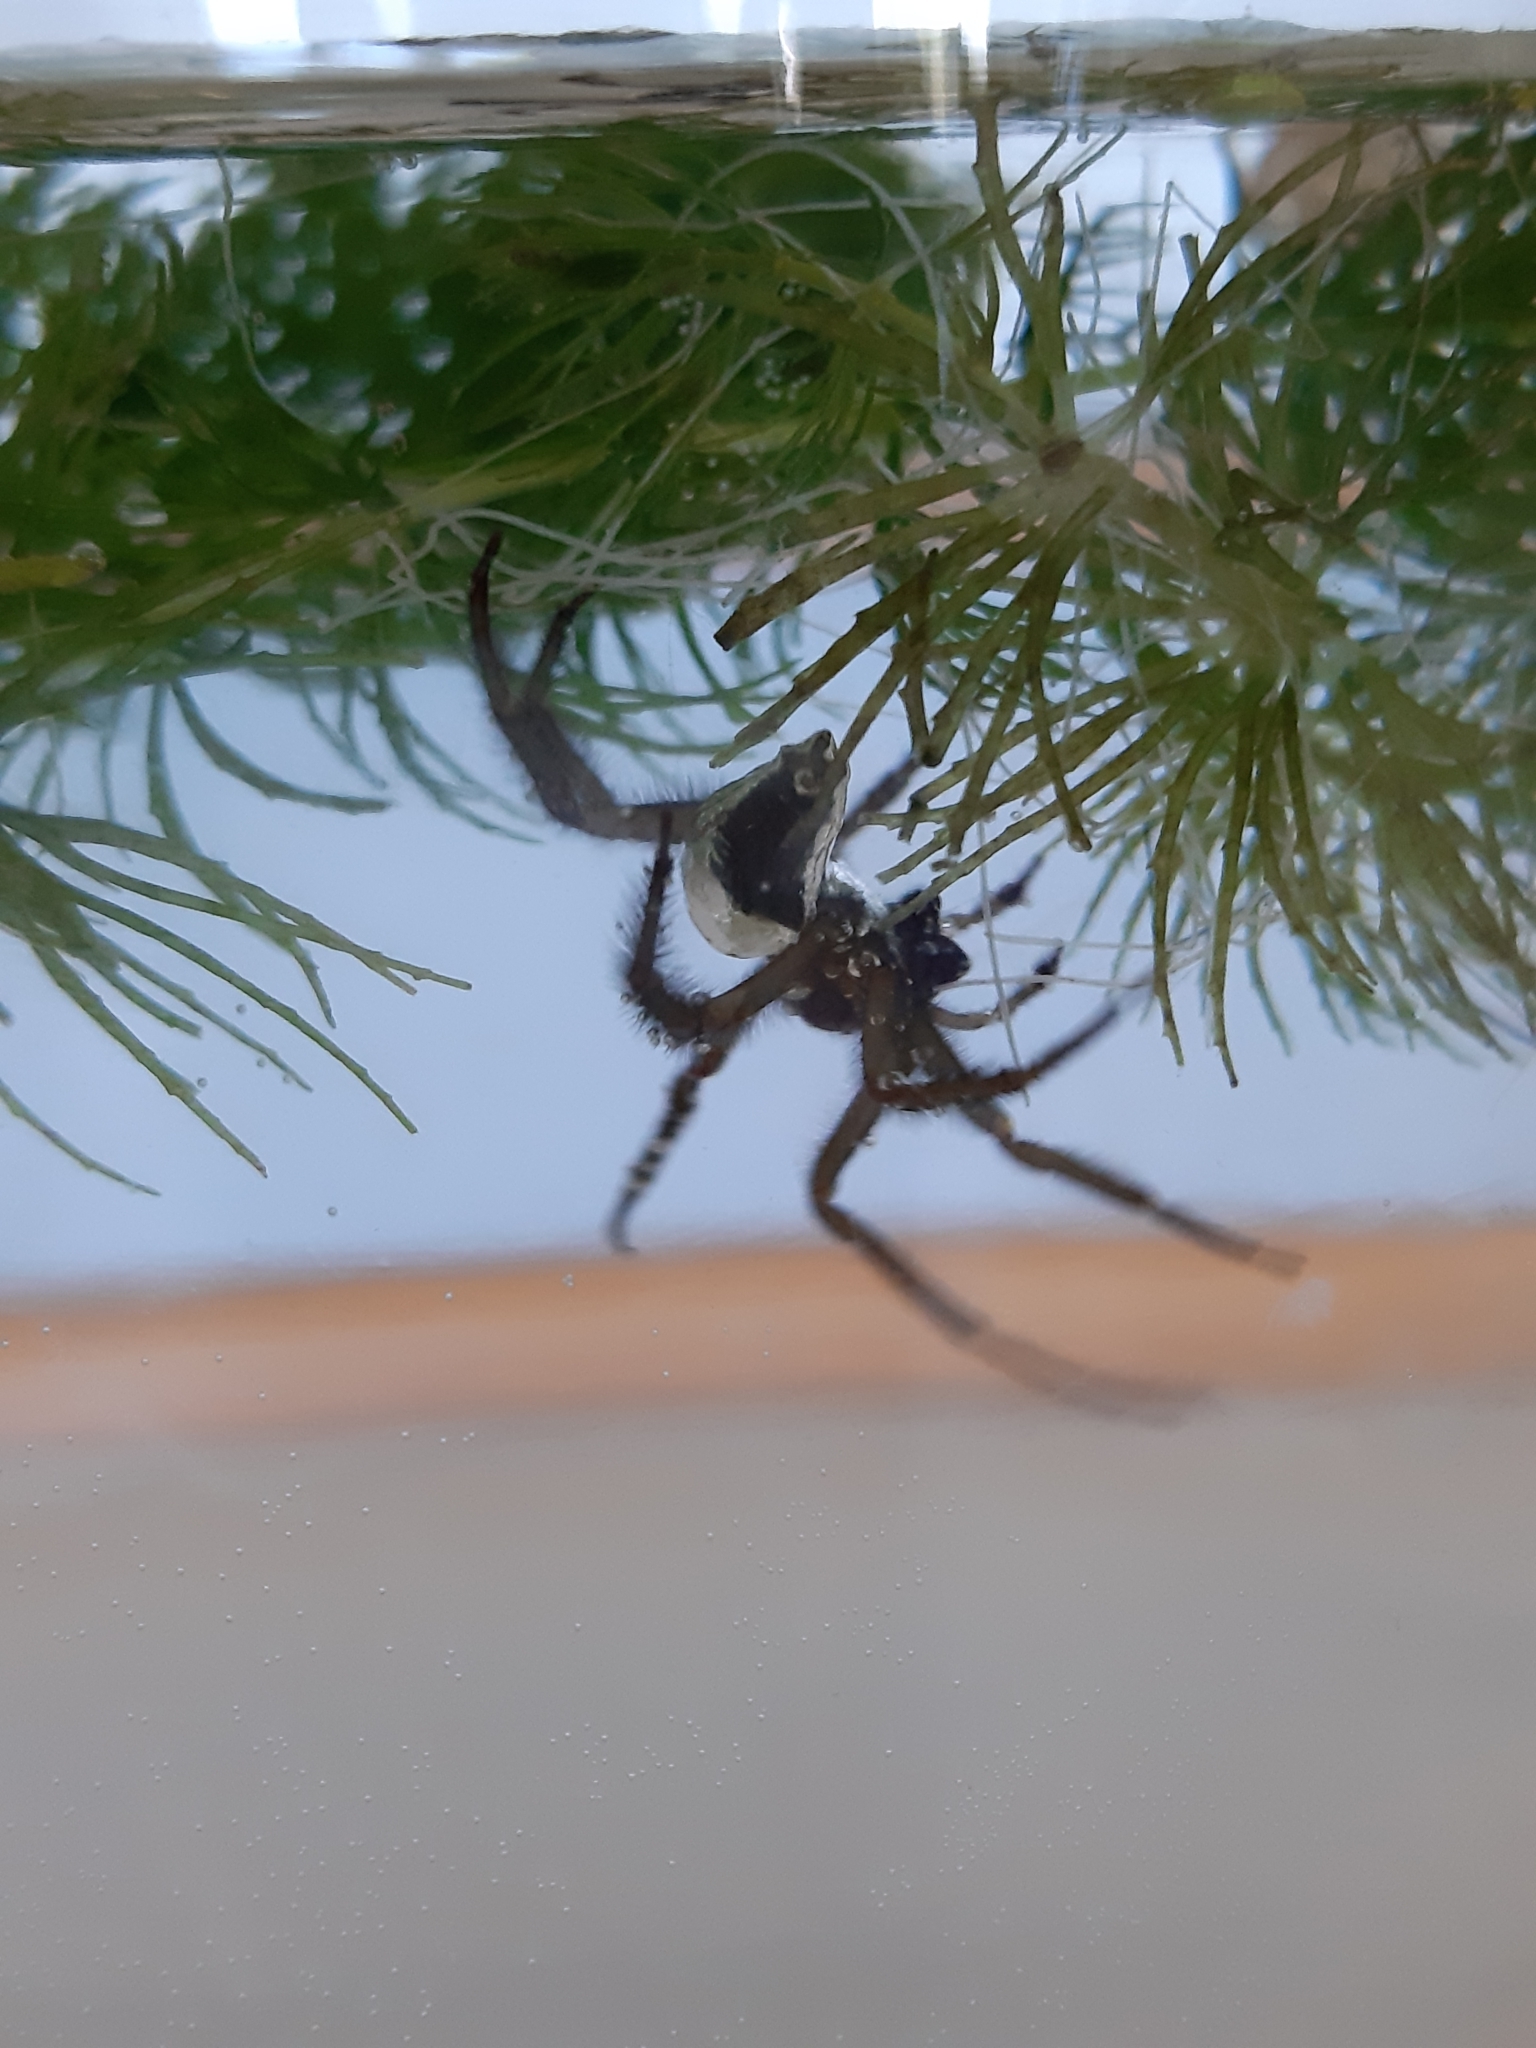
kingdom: Animalia
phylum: Arthropoda
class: Arachnida
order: Araneae
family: Dictynidae
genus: Argyroneta
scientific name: Argyroneta aquatica
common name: Water spider
